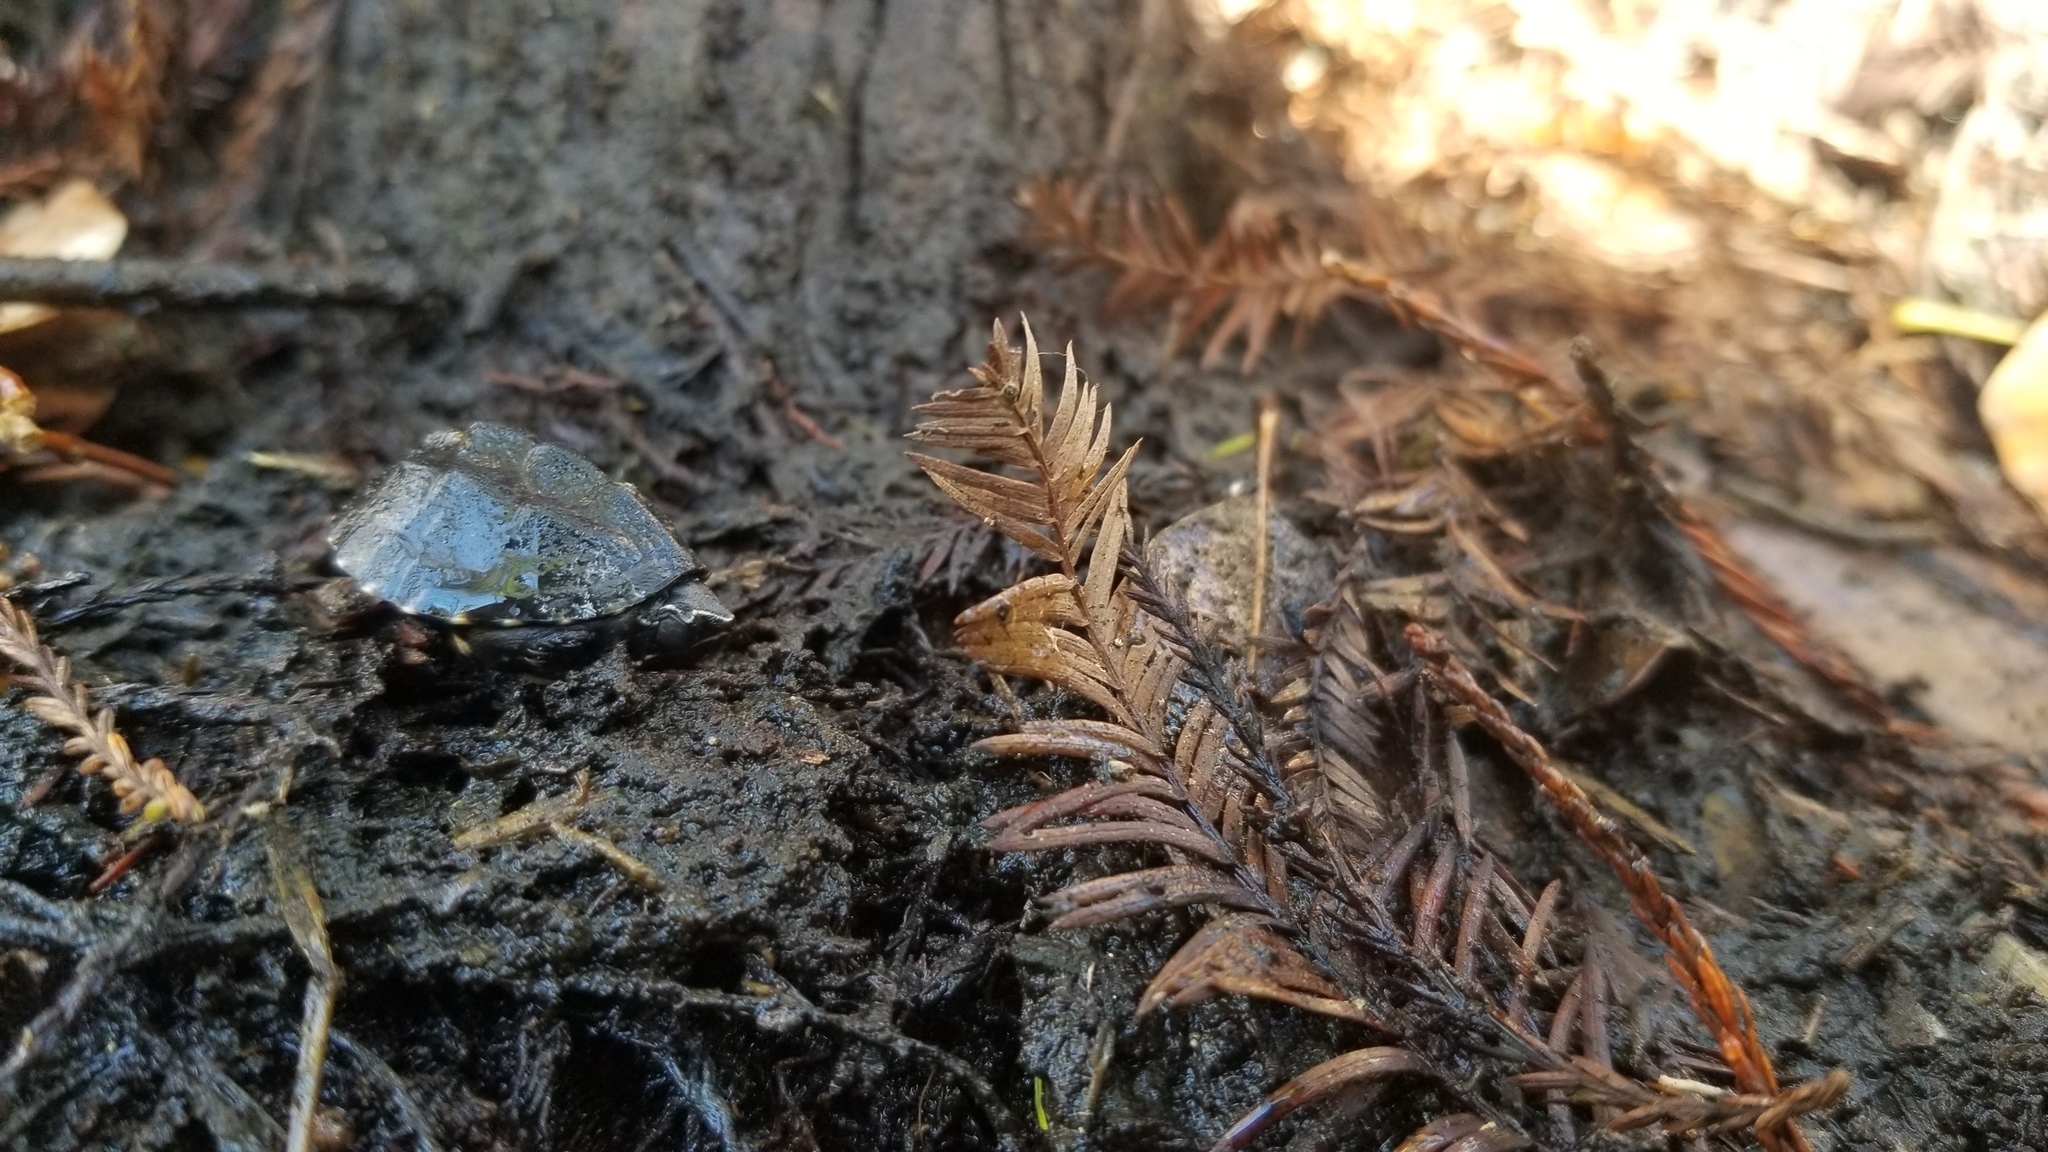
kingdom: Animalia
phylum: Chordata
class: Testudines
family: Kinosternidae
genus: Sternotherus
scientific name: Sternotherus odoratus
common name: Common musk turtle
